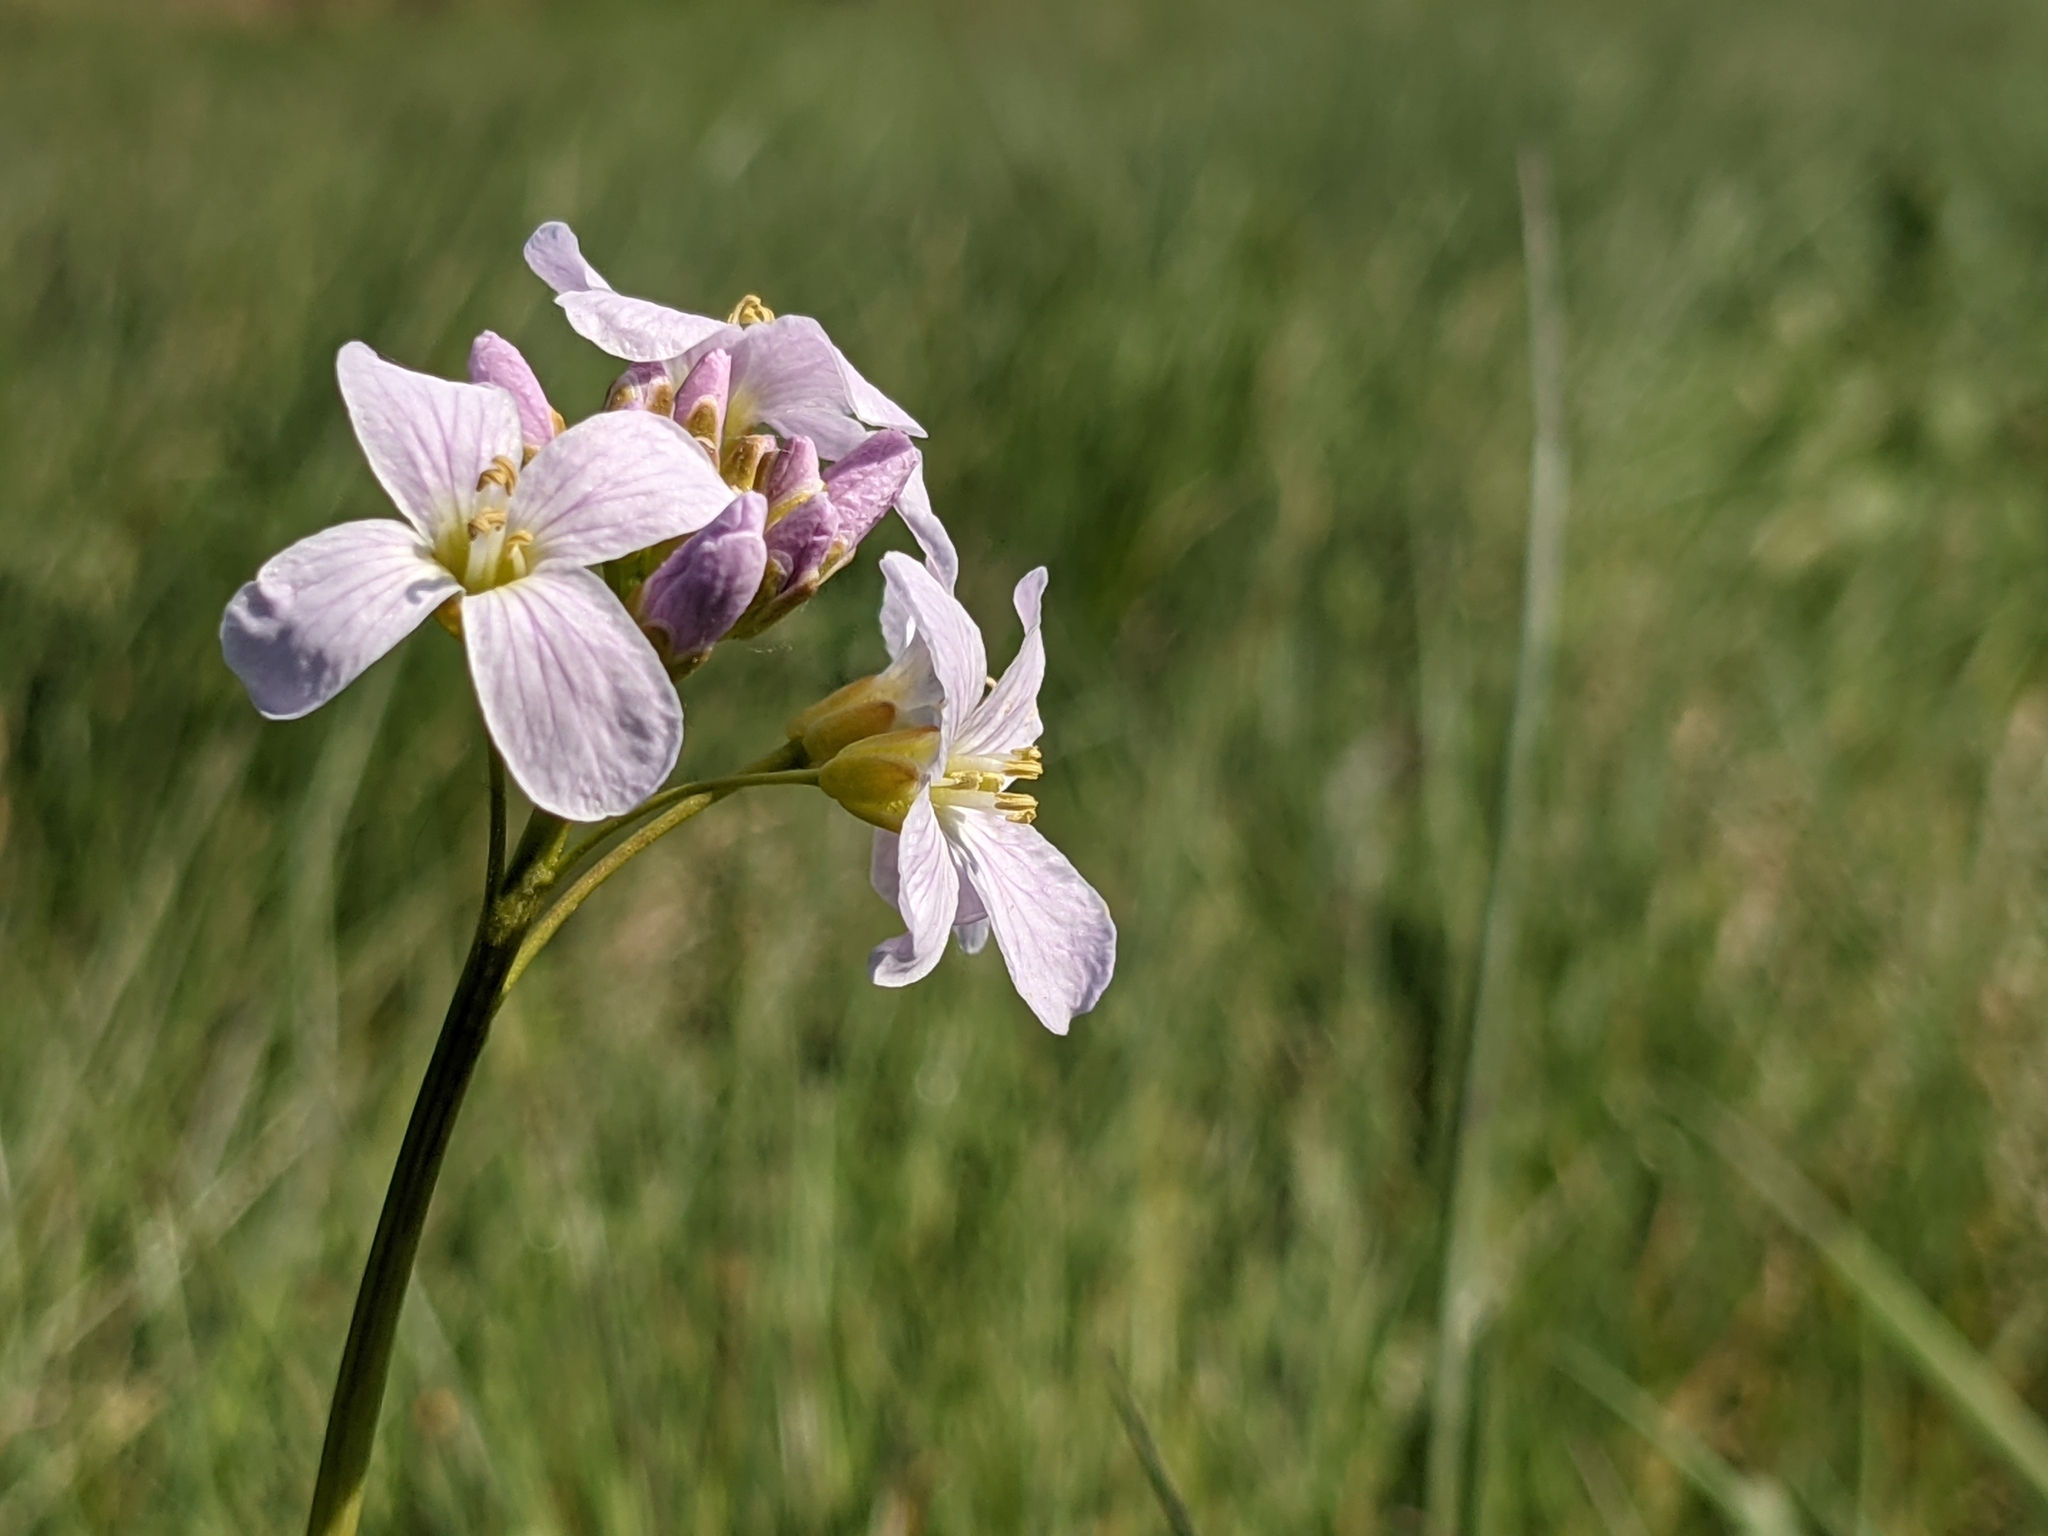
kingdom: Plantae
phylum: Tracheophyta
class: Magnoliopsida
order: Brassicales
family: Brassicaceae
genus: Cardamine
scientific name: Cardamine pratensis
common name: Cuckoo flower
